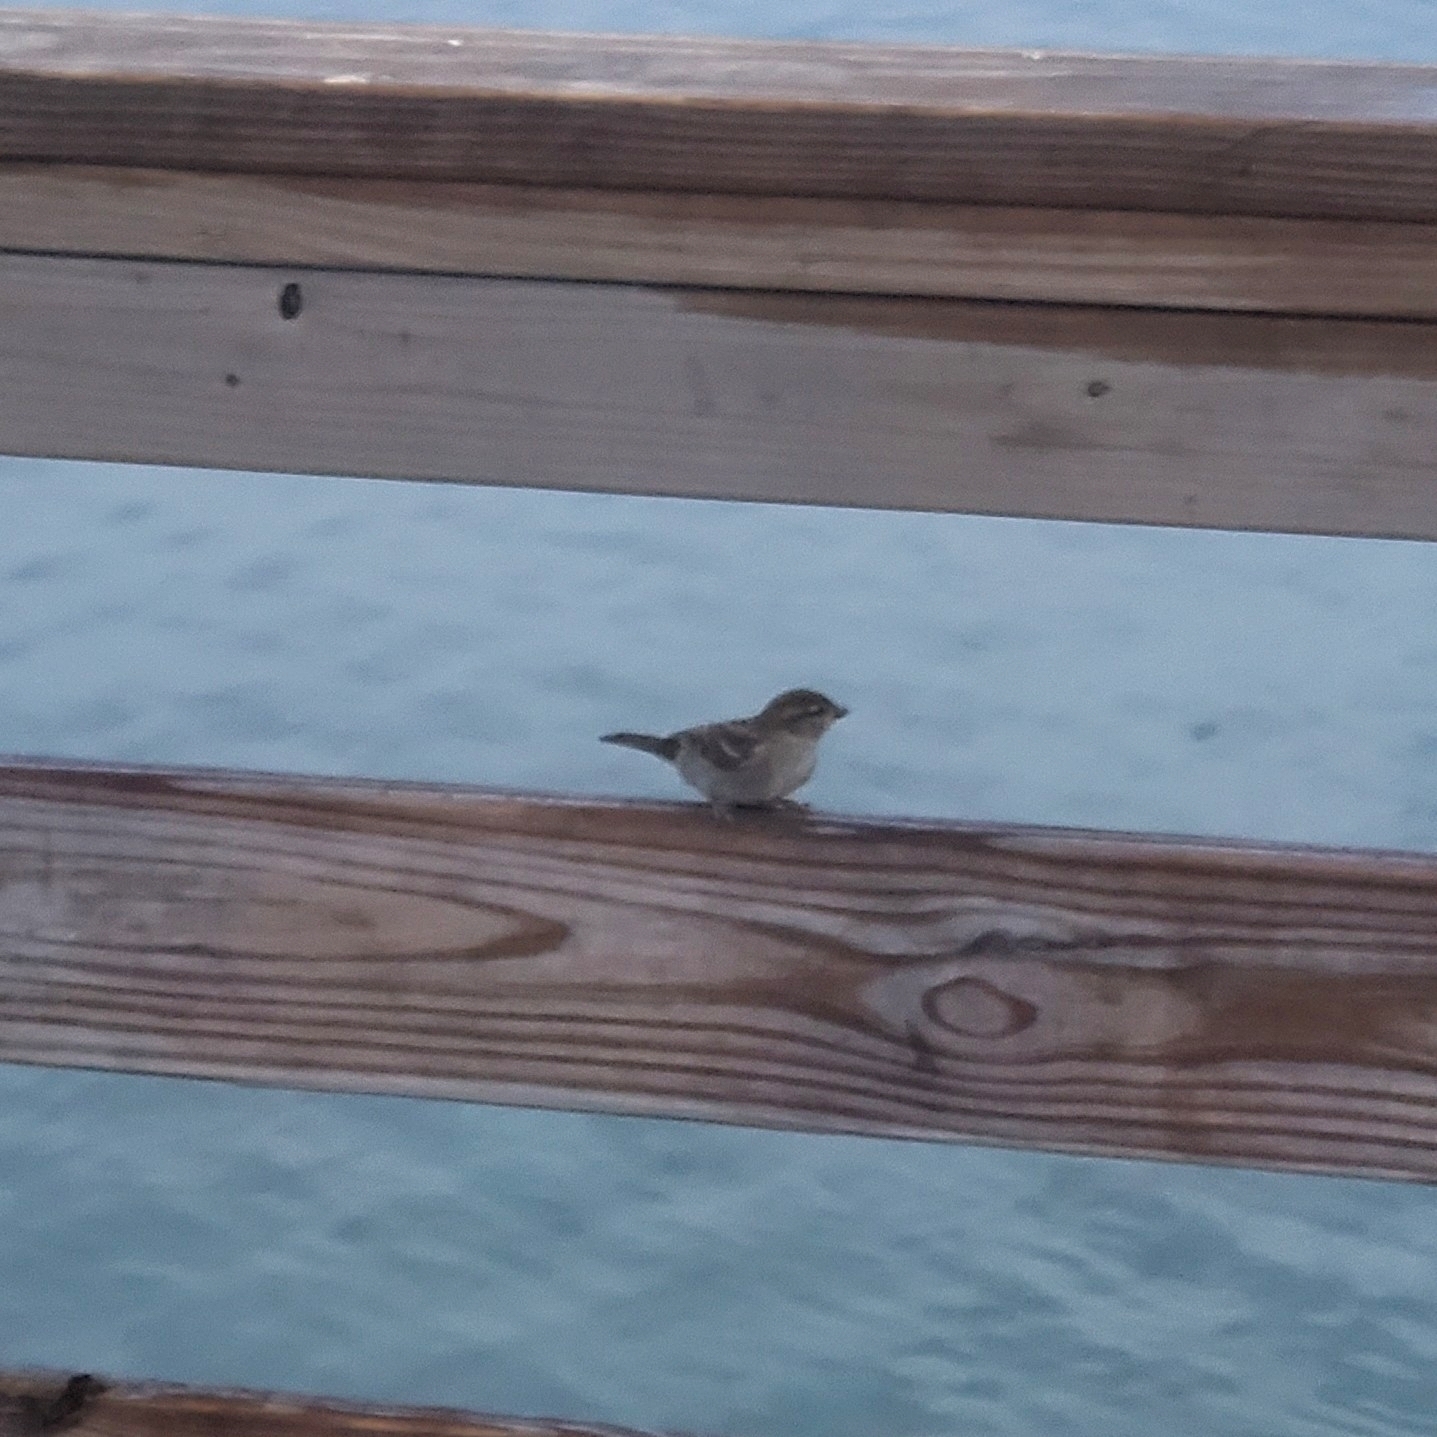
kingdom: Animalia
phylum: Chordata
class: Aves
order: Passeriformes
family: Passeridae
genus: Passer
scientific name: Passer domesticus
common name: House sparrow
